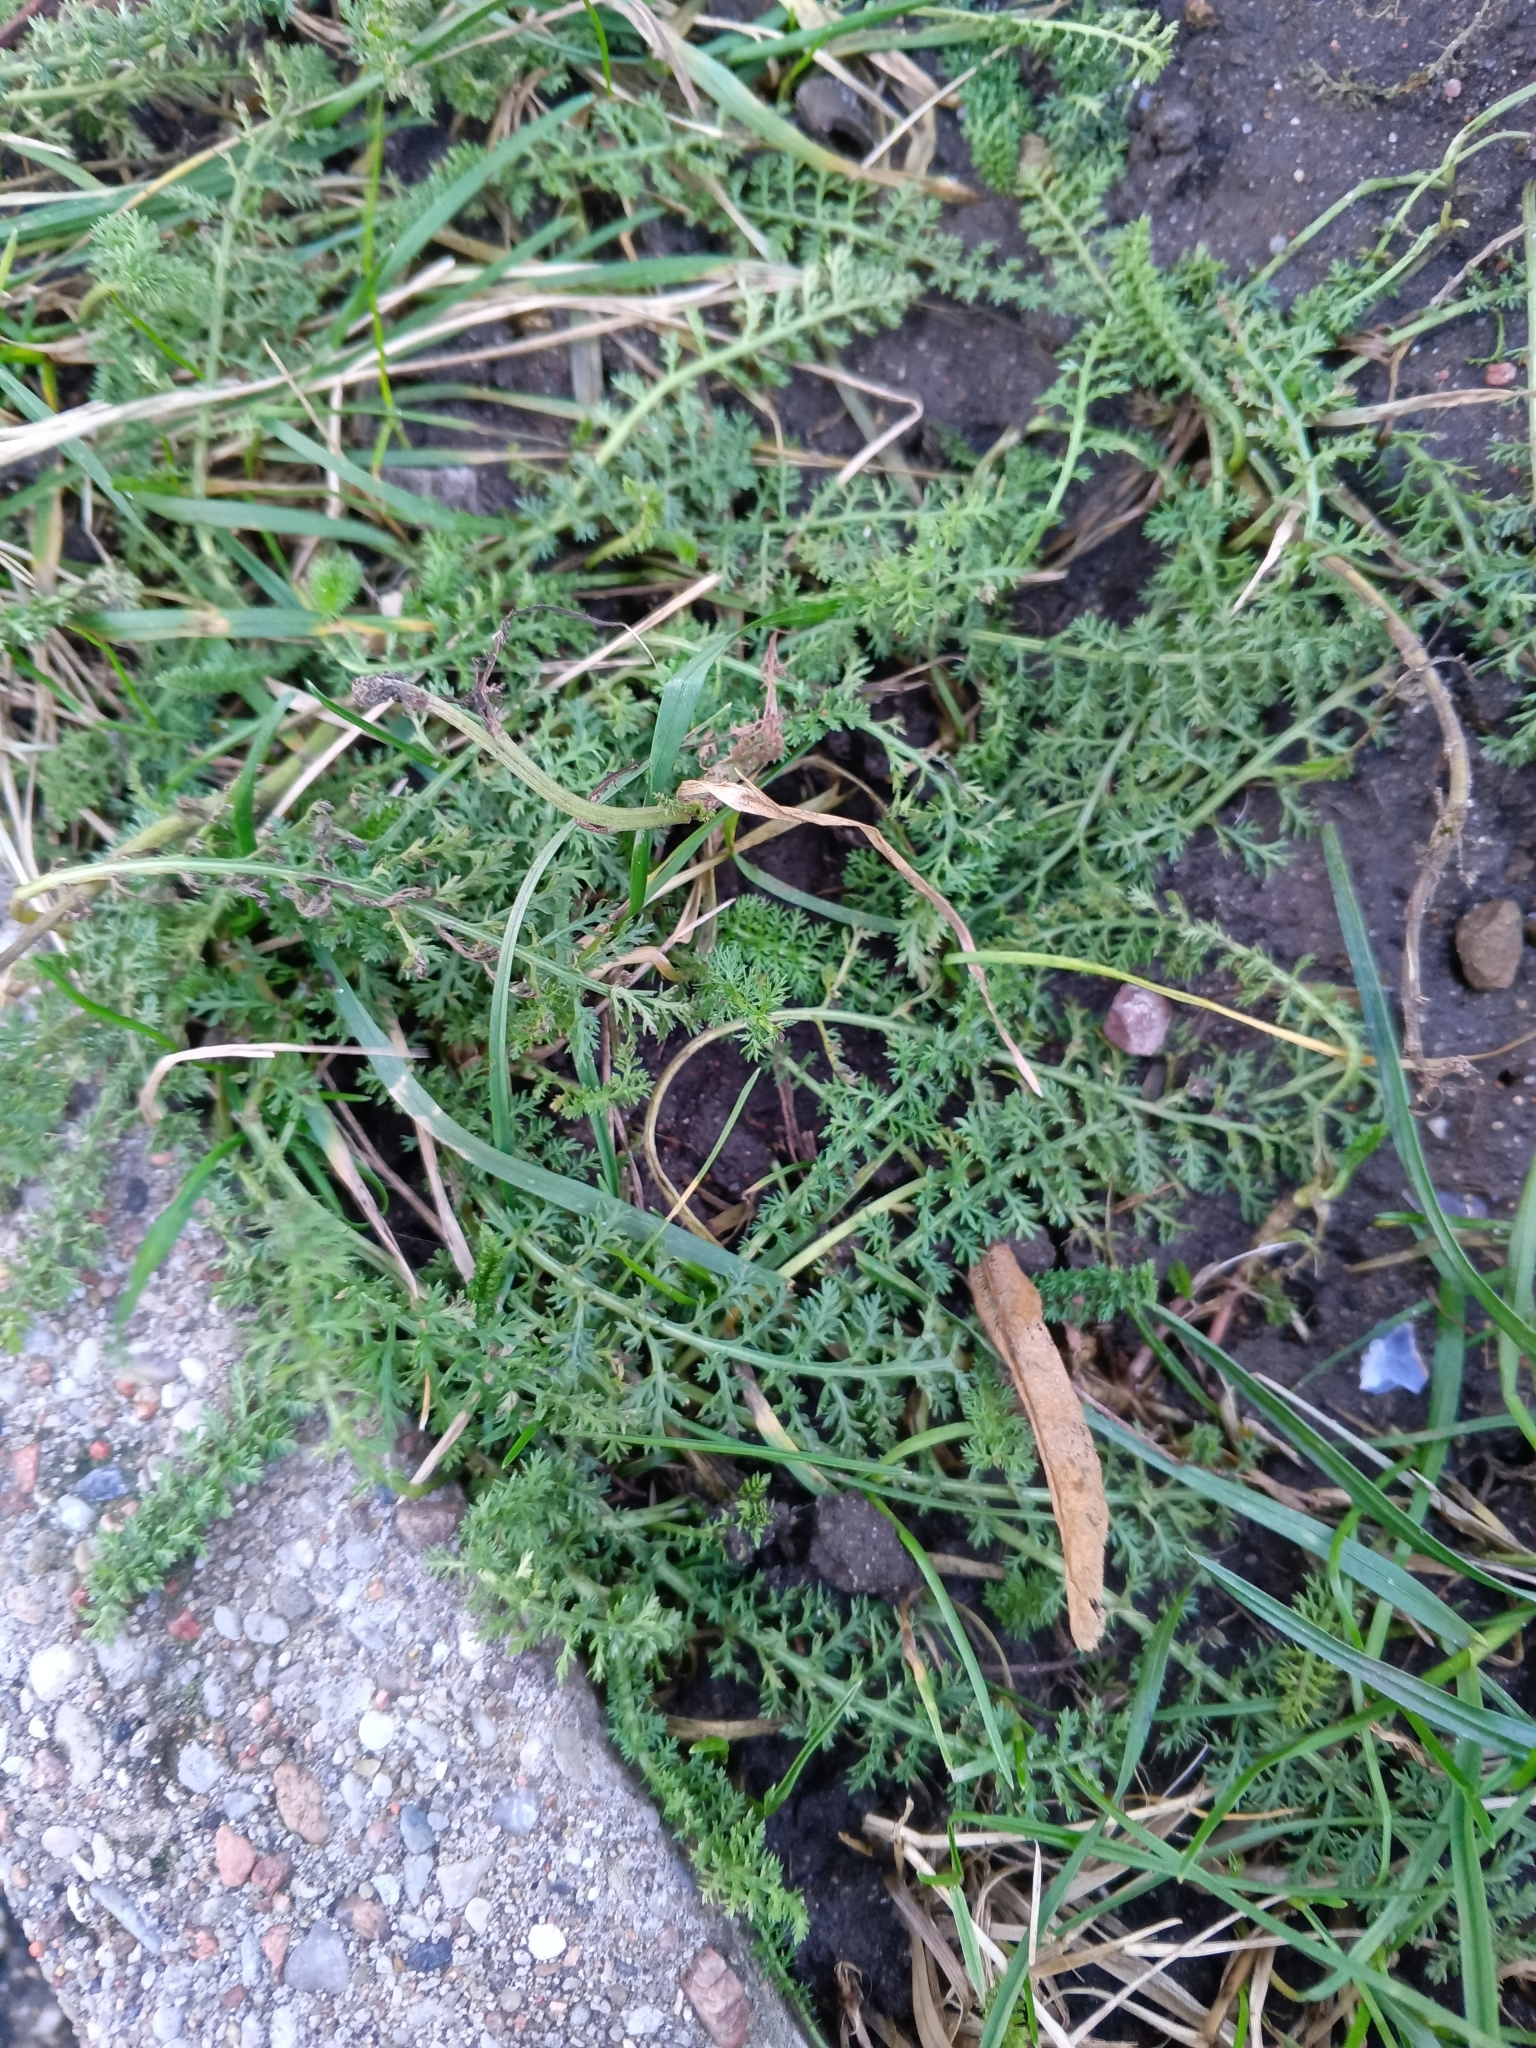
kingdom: Plantae
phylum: Tracheophyta
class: Magnoliopsida
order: Asterales
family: Asteraceae
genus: Achillea
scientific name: Achillea millefolium
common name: Yarrow
